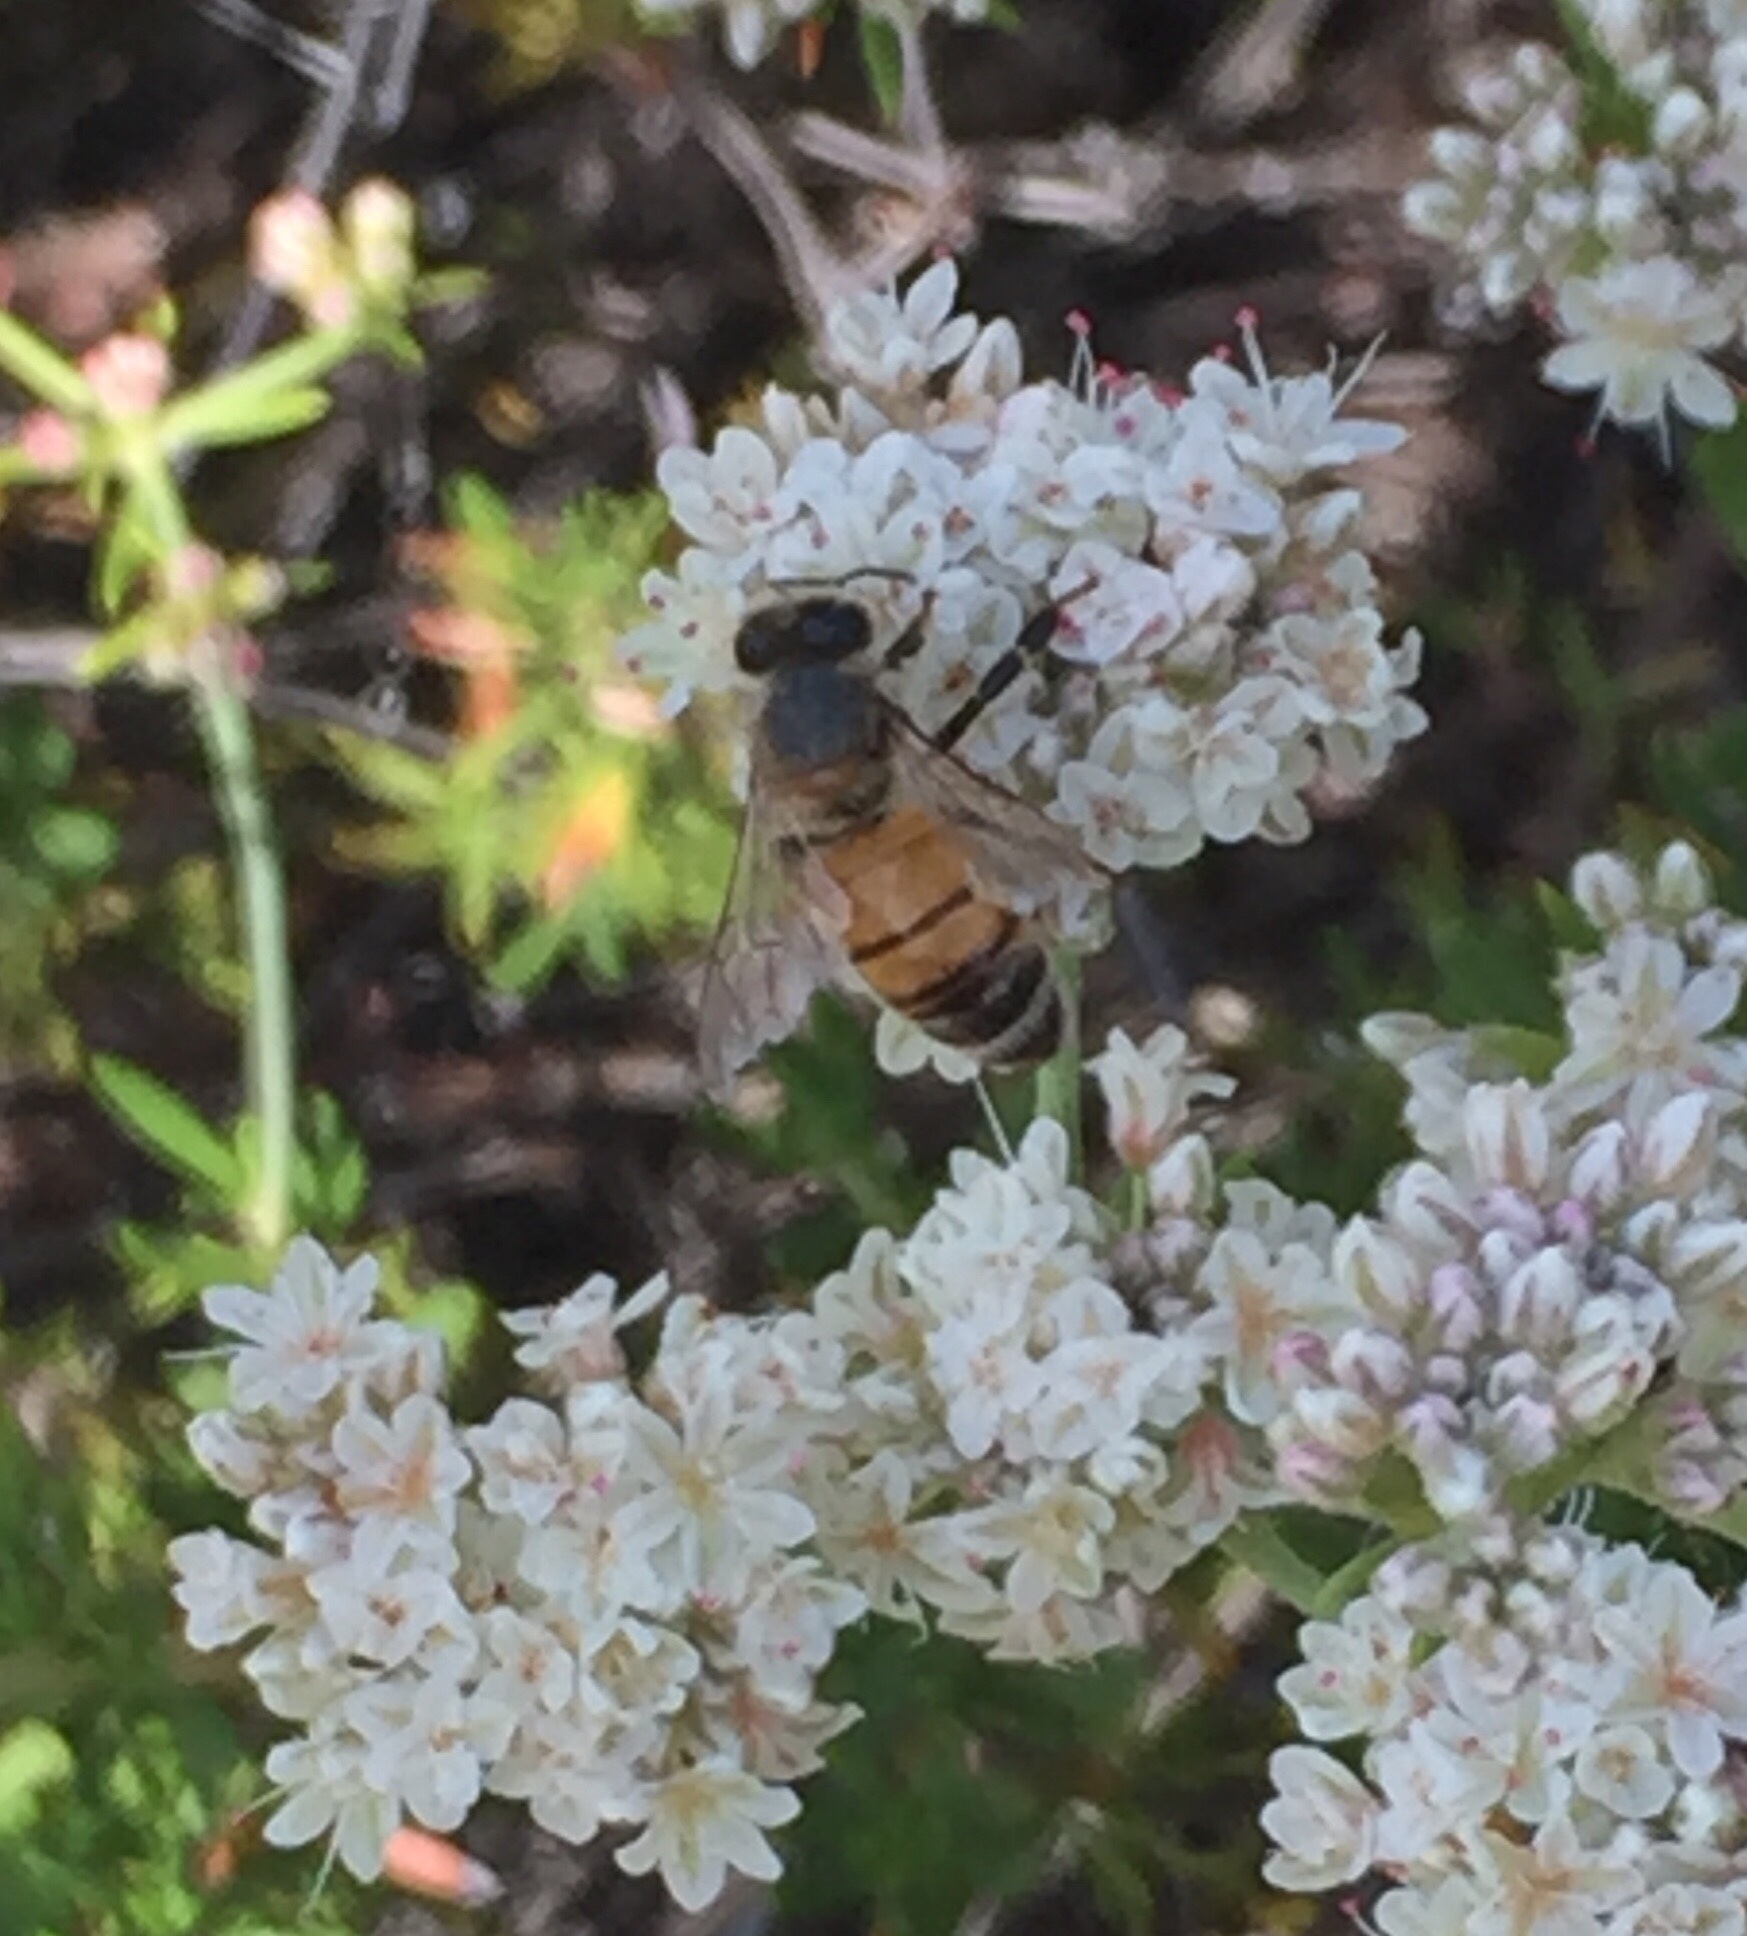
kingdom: Animalia
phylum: Arthropoda
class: Insecta
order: Hymenoptera
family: Apidae
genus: Apis
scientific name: Apis mellifera
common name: Honey bee
